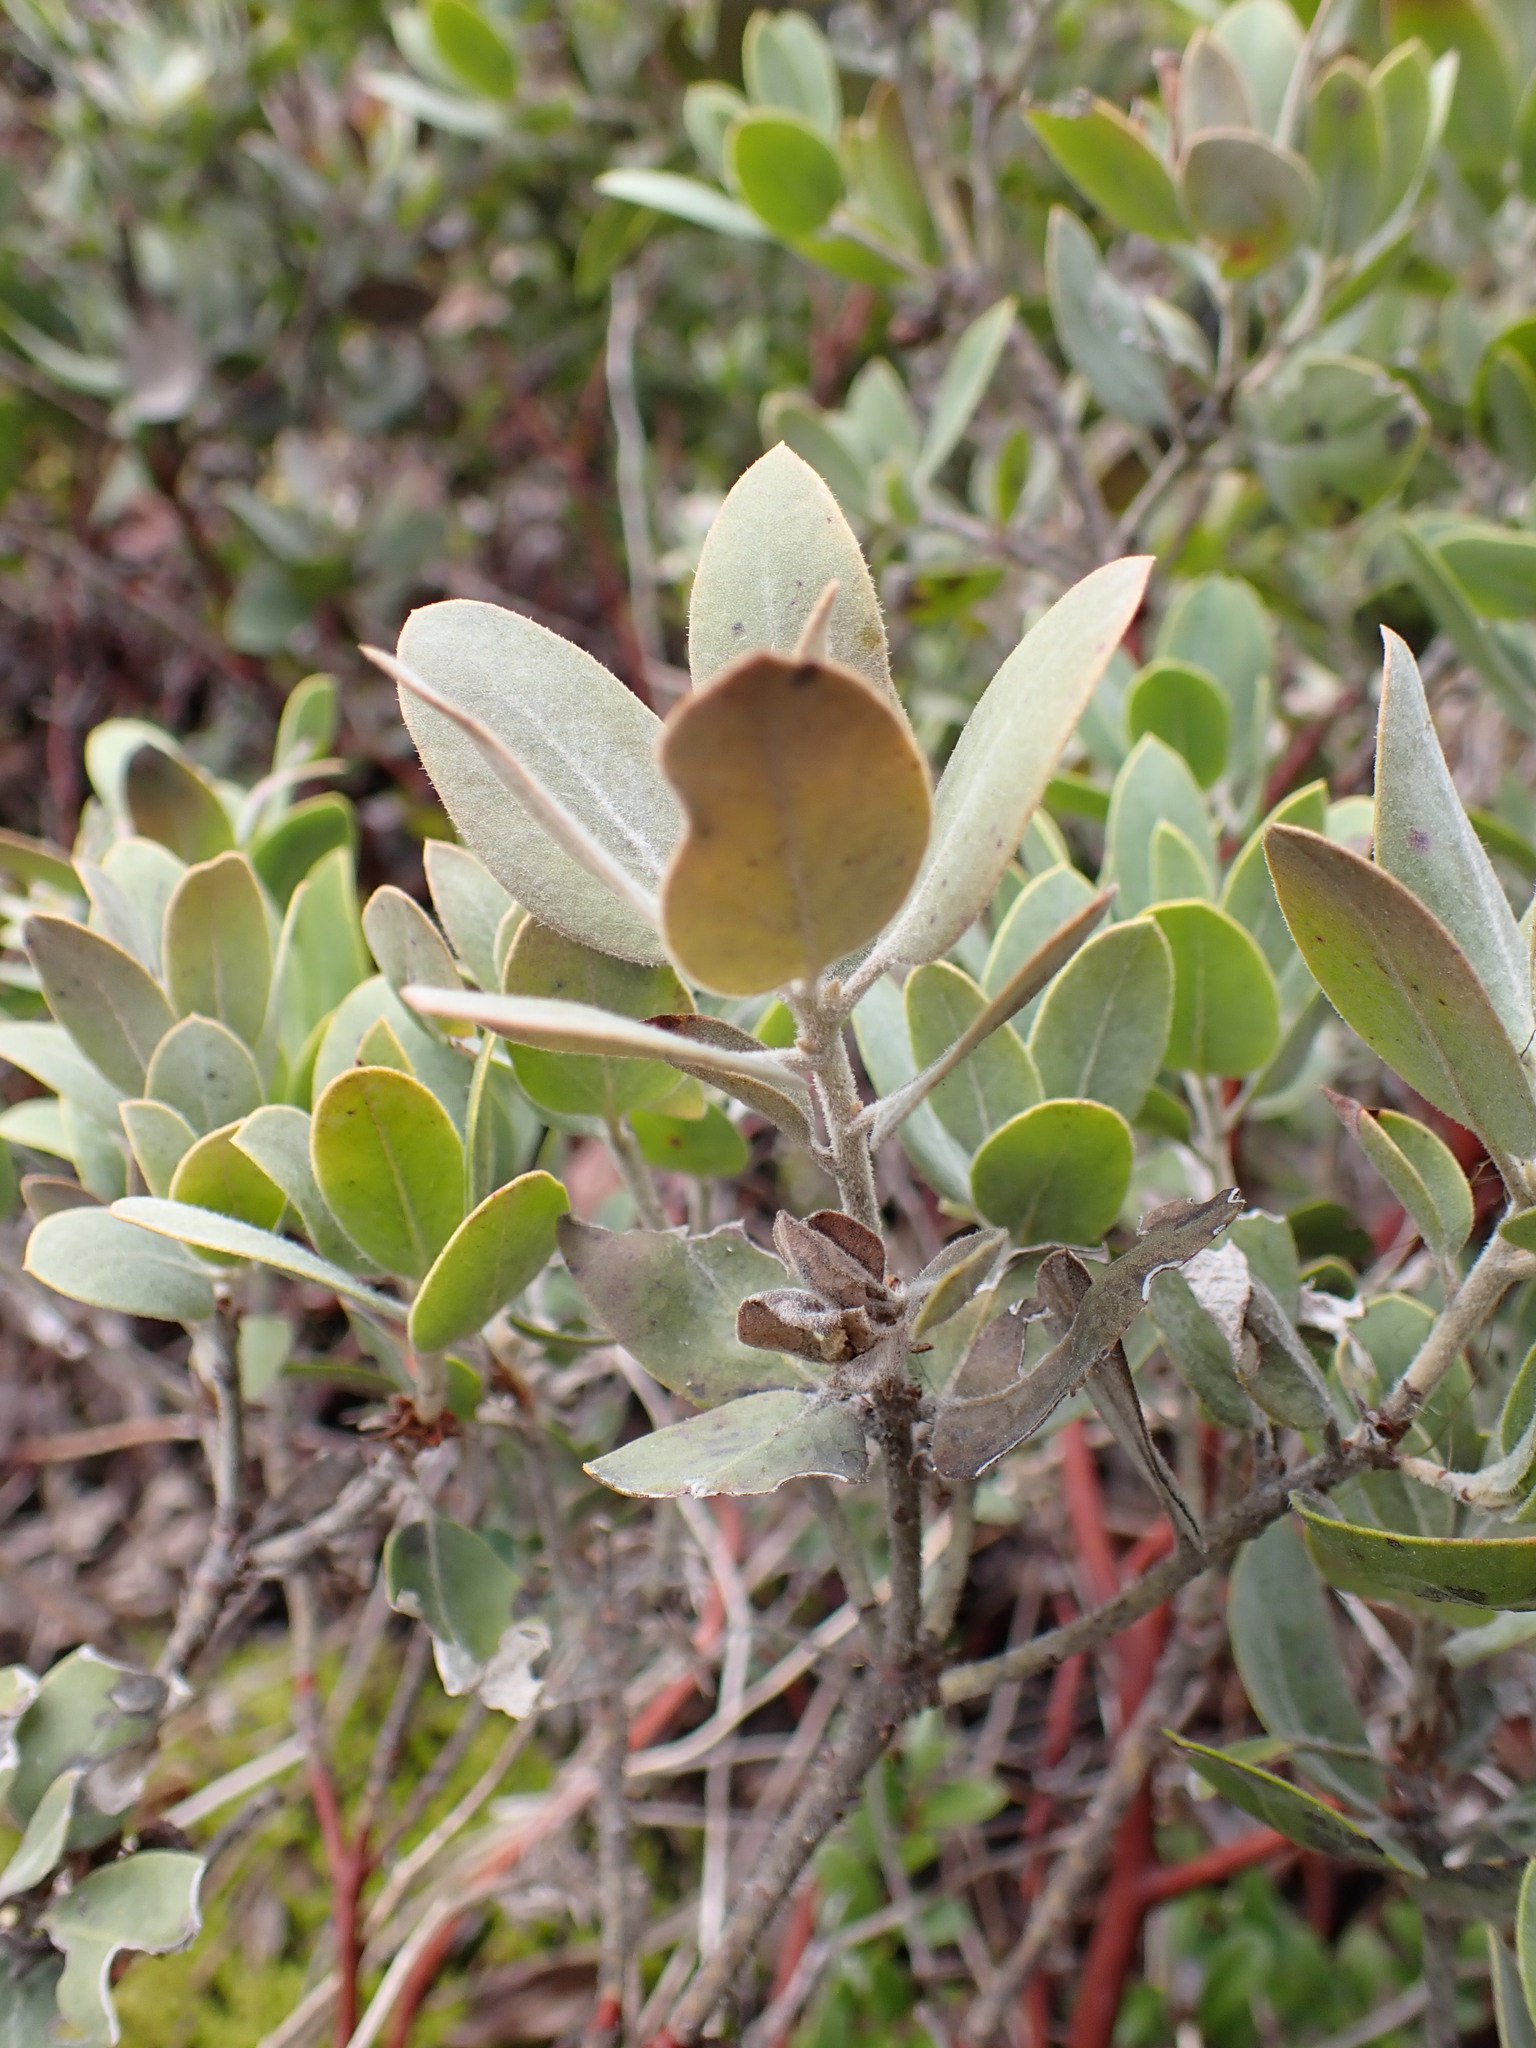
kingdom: Plantae
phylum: Tracheophyta
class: Magnoliopsida
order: Ericales
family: Ericaceae
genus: Arctostaphylos
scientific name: Arctostaphylos columbiana
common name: Bristly bearberry
